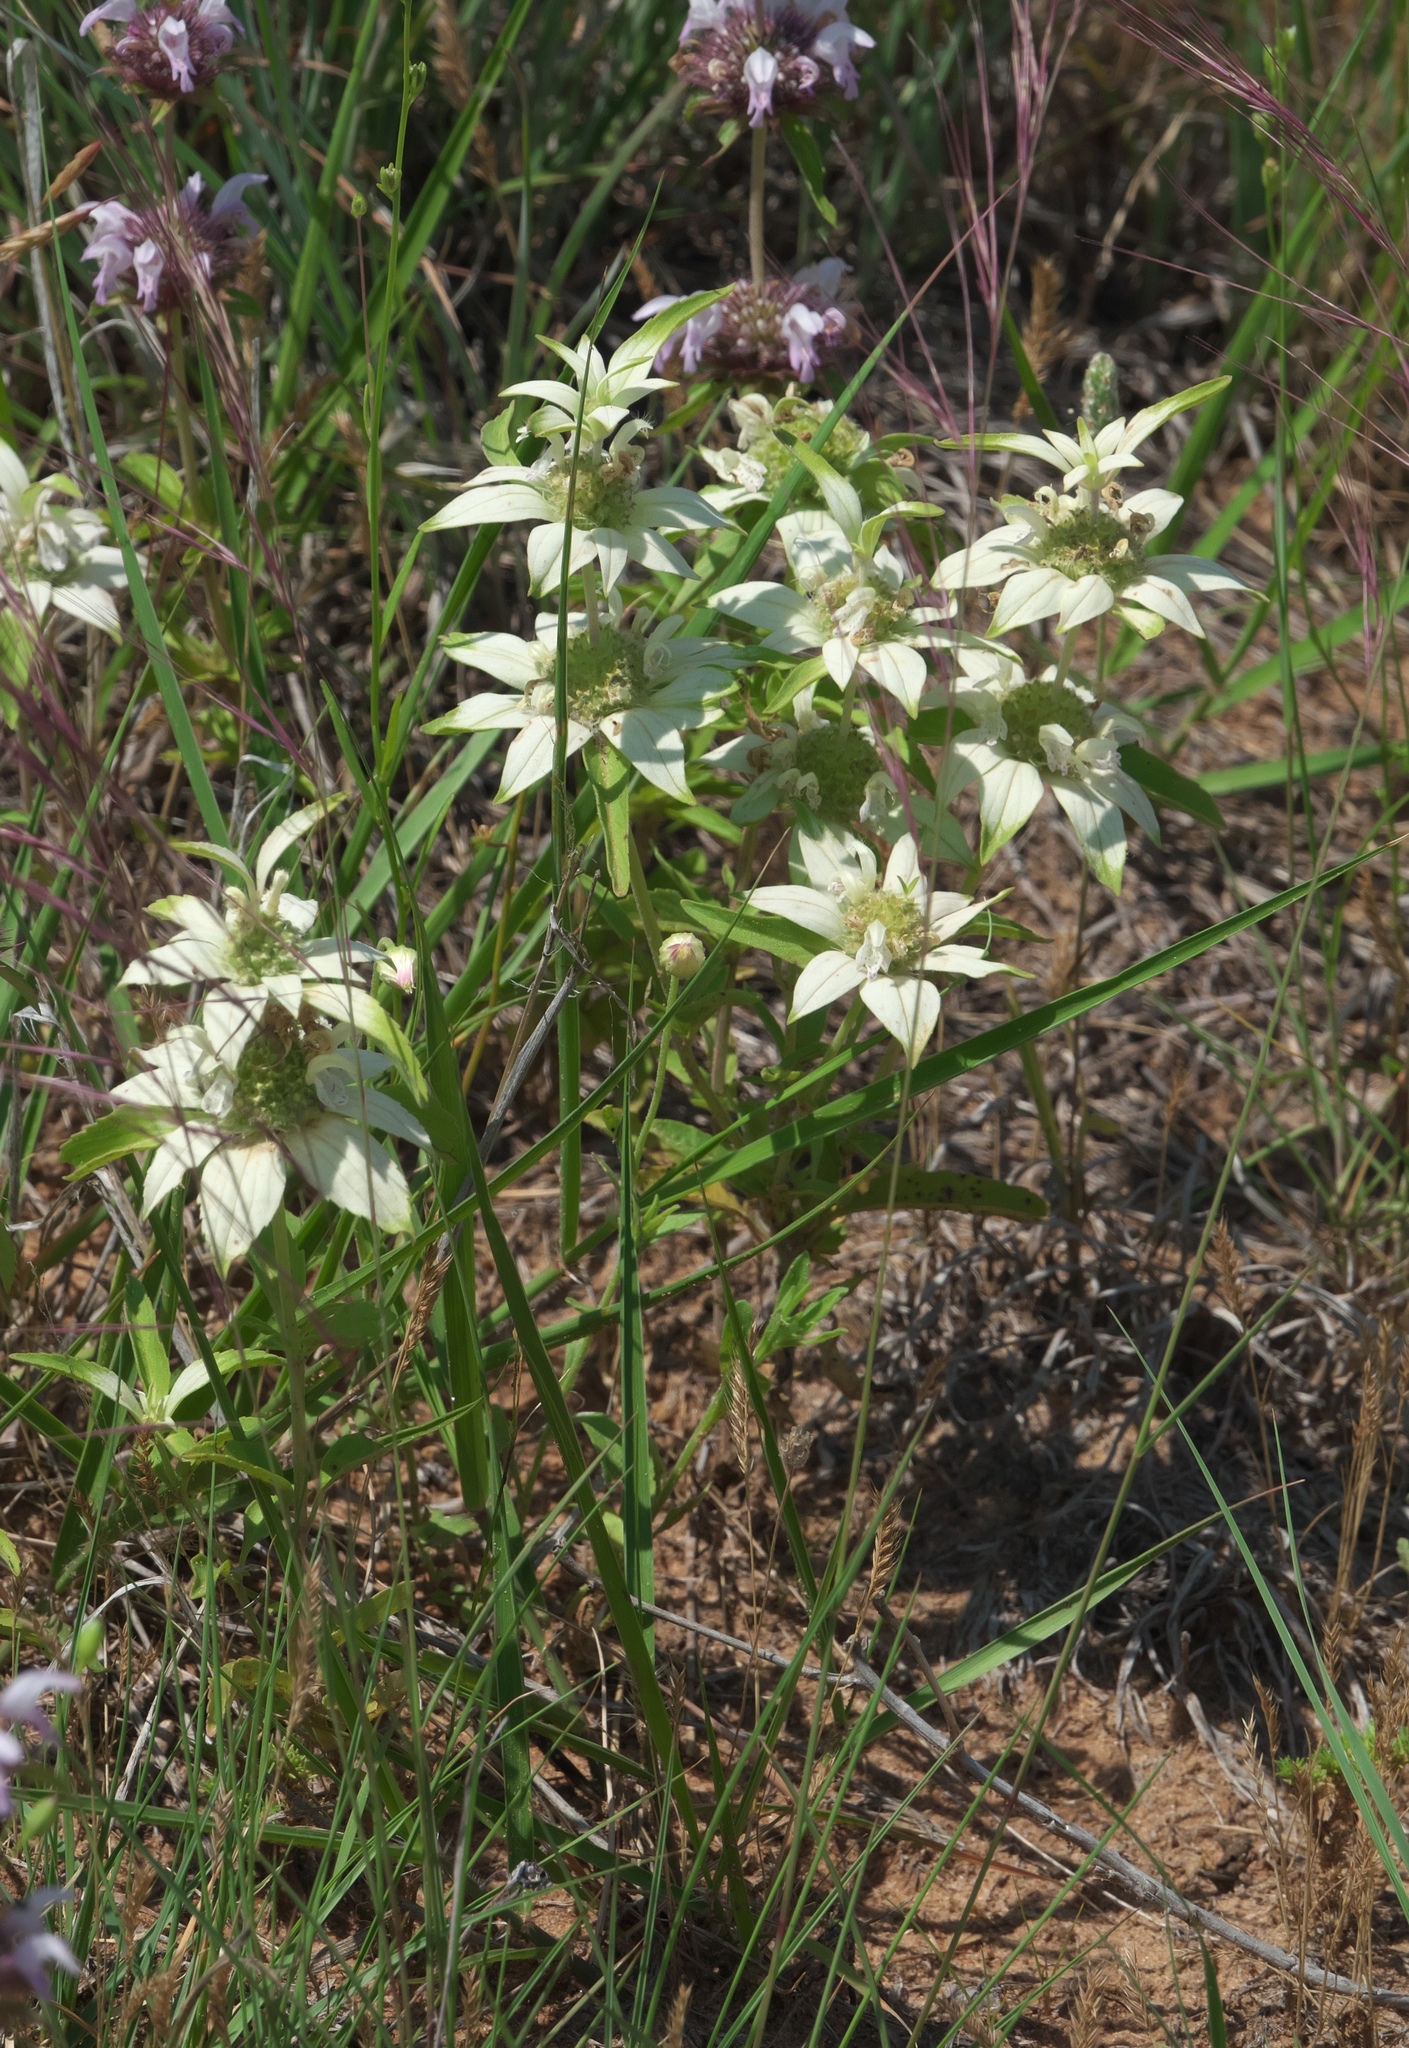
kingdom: Plantae
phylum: Tracheophyta
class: Magnoliopsida
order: Lamiales
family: Lamiaceae
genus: Monarda
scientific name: Monarda punctata
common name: Dotted monarda
